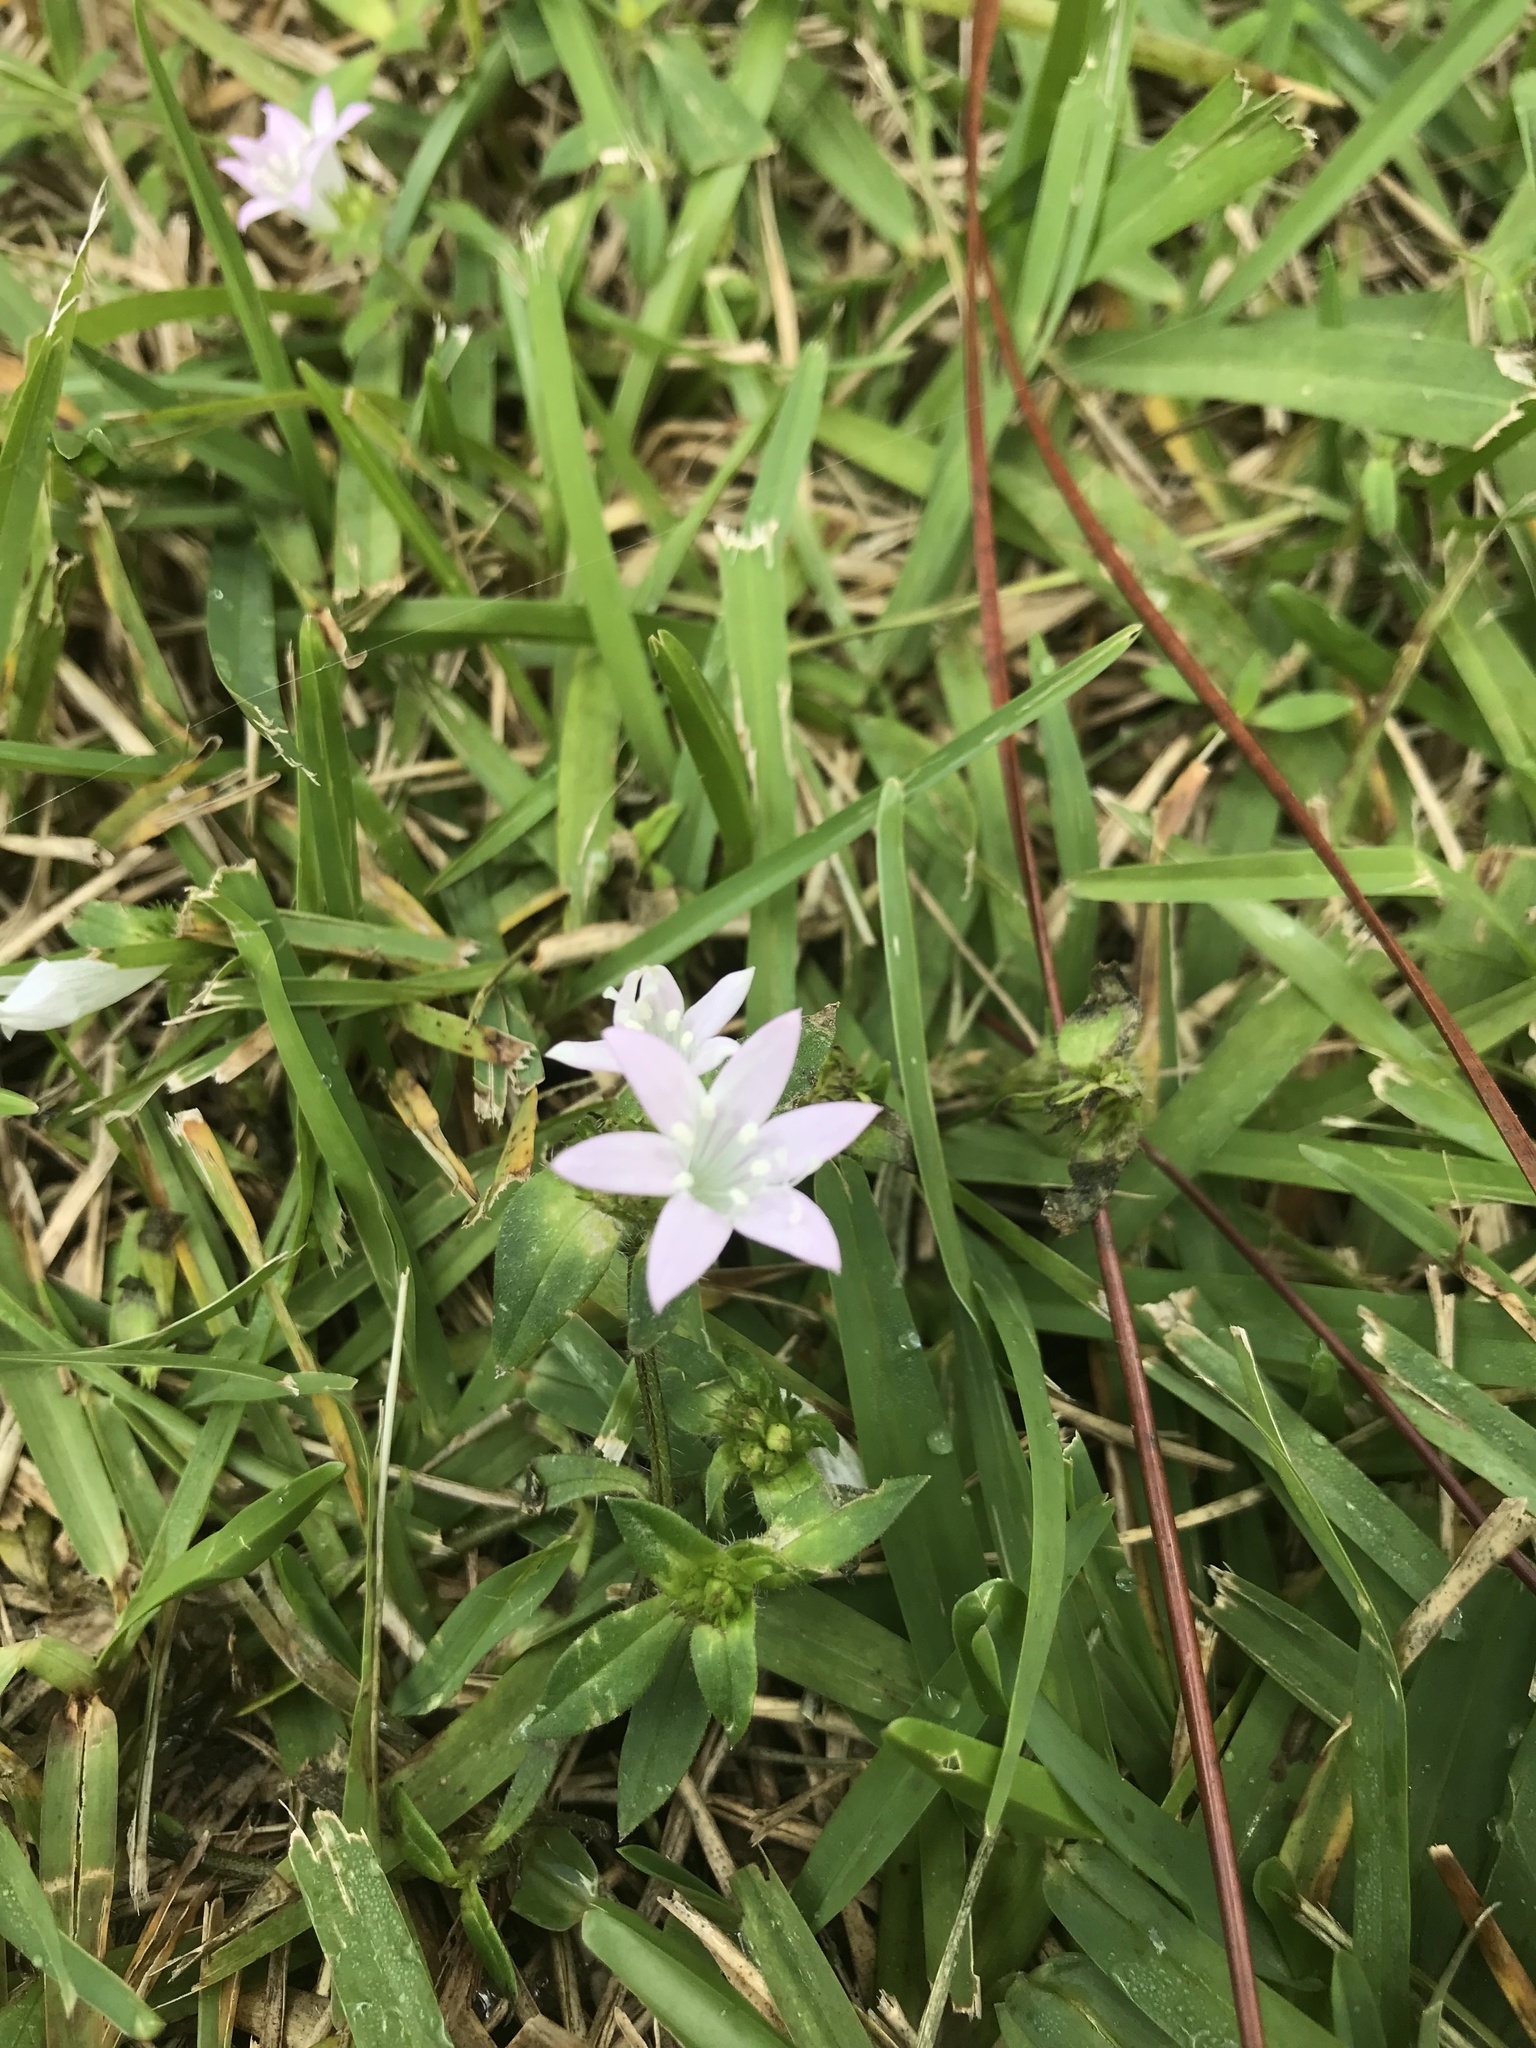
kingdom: Plantae
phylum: Tracheophyta
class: Magnoliopsida
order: Gentianales
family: Rubiaceae
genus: Richardia
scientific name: Richardia grandiflora
